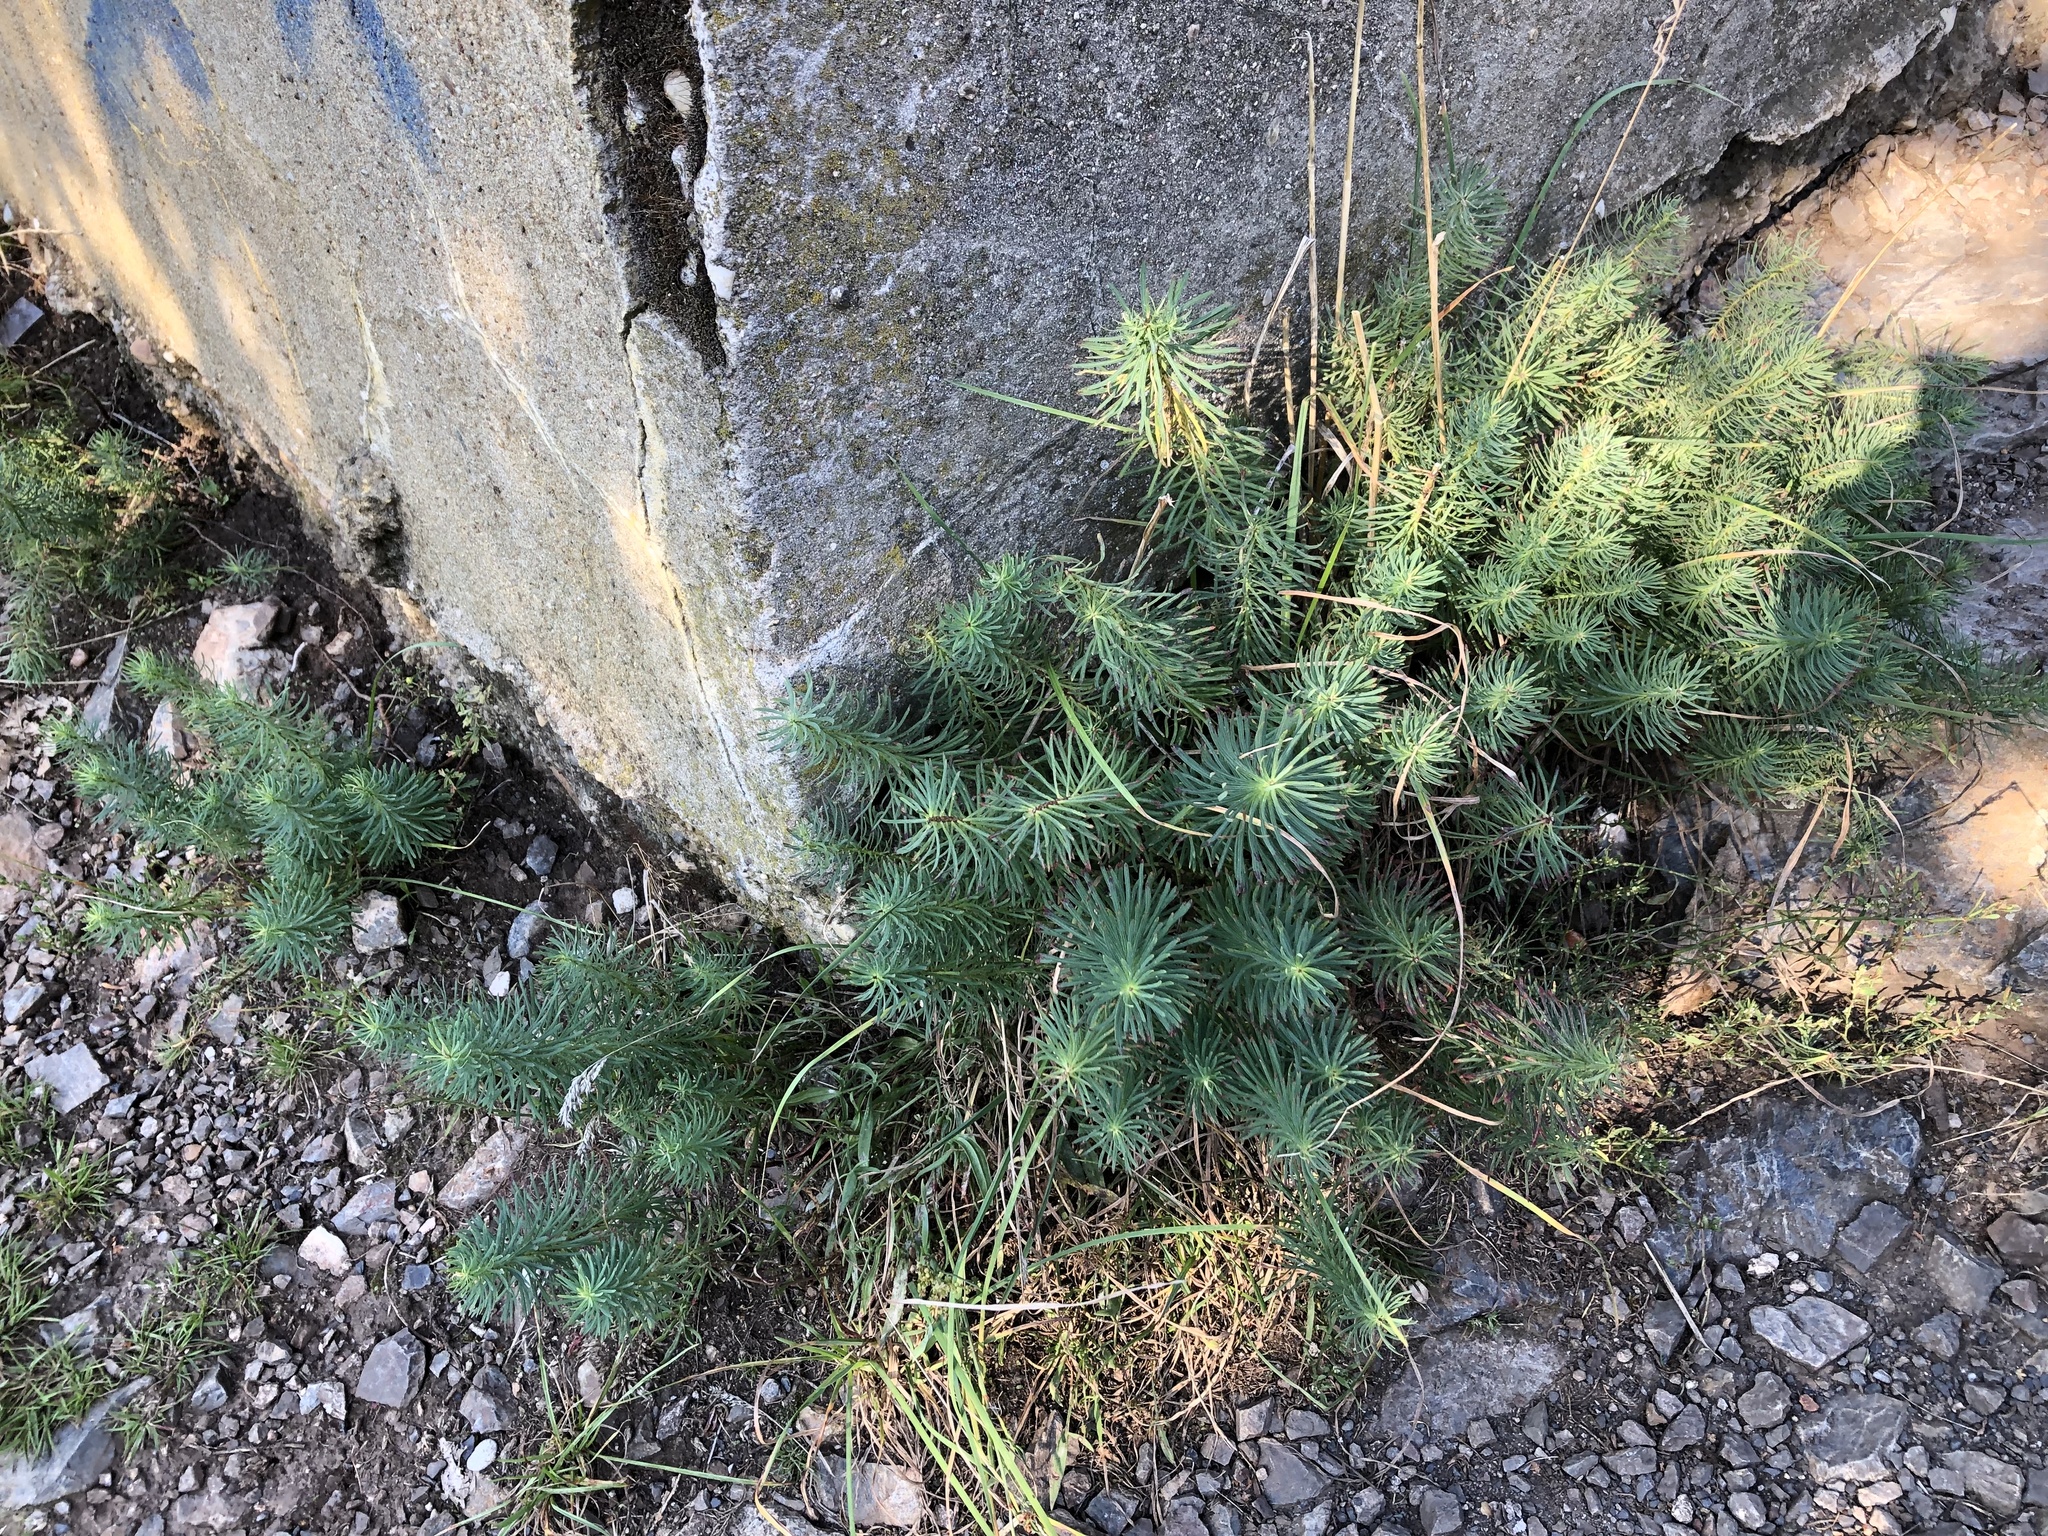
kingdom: Plantae
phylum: Tracheophyta
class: Magnoliopsida
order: Malpighiales
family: Euphorbiaceae
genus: Euphorbia
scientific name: Euphorbia cyparissias
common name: Cypress spurge
